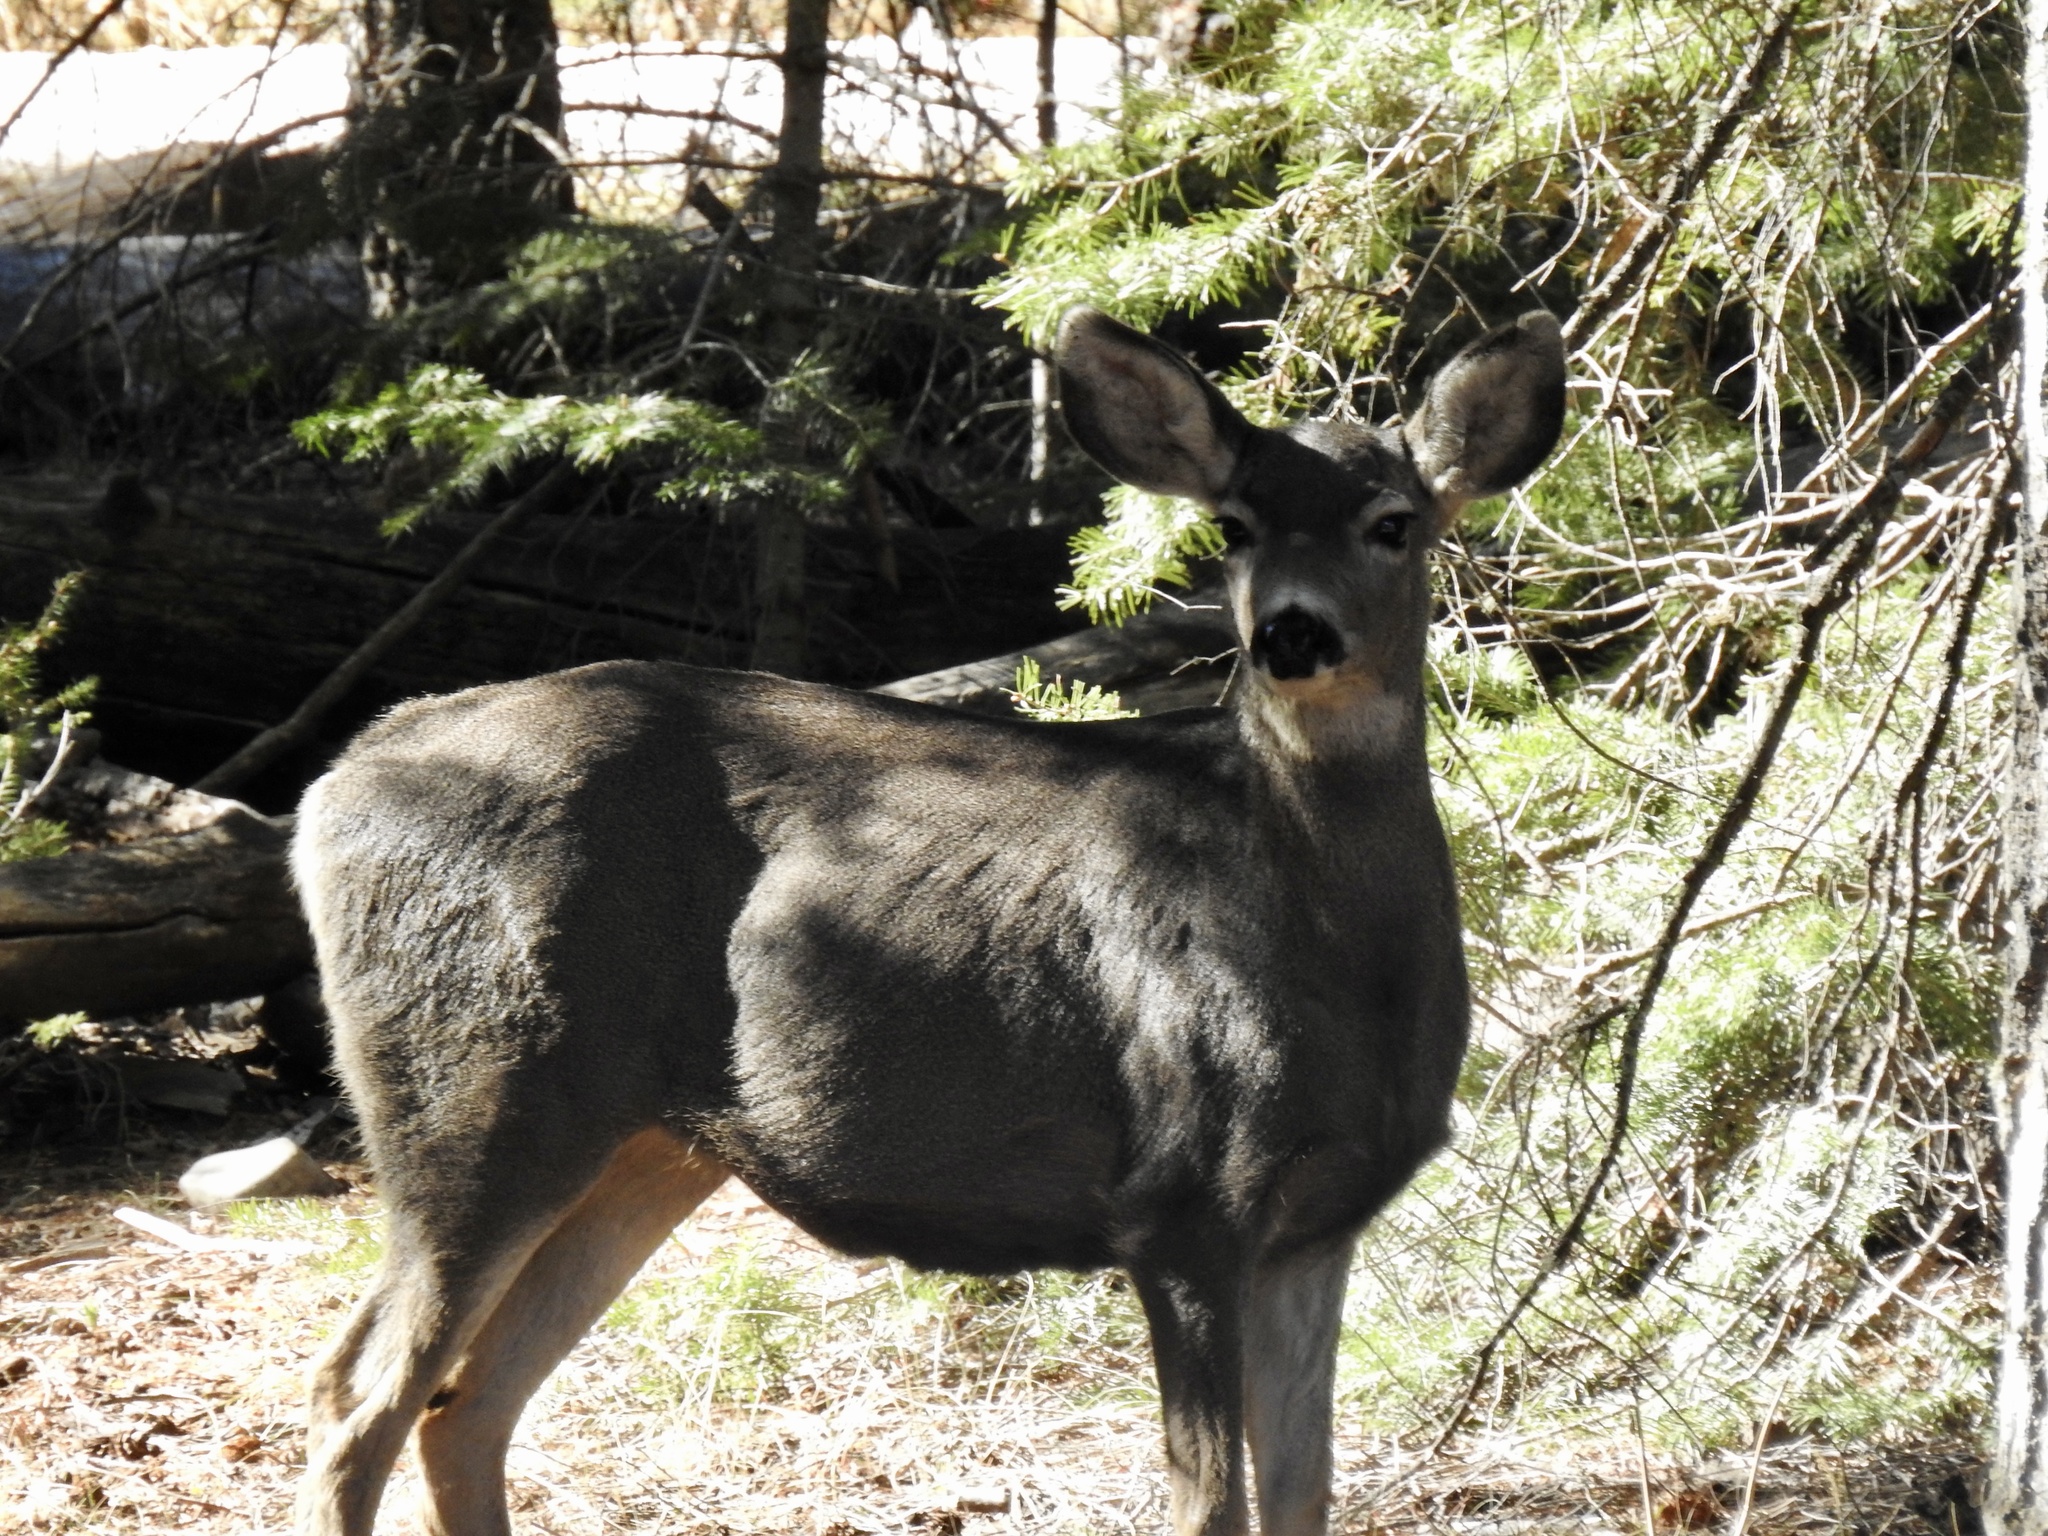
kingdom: Animalia
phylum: Chordata
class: Mammalia
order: Artiodactyla
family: Cervidae
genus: Odocoileus
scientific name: Odocoileus hemionus
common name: Mule deer
